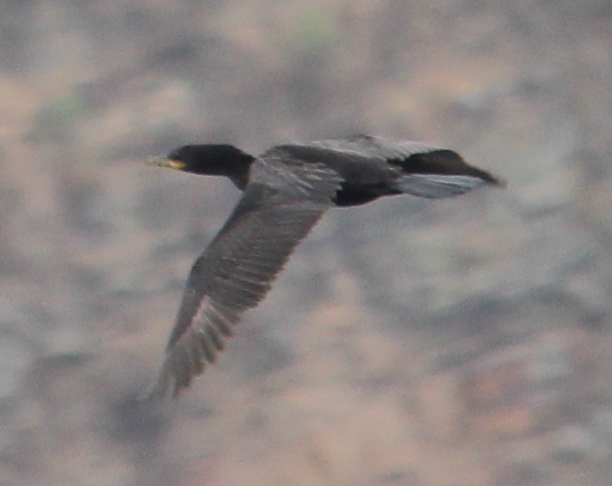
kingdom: Animalia
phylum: Chordata
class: Aves
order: Suliformes
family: Phalacrocoracidae
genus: Phalacrocorax
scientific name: Phalacrocorax brasilianus
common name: Neotropic cormorant
